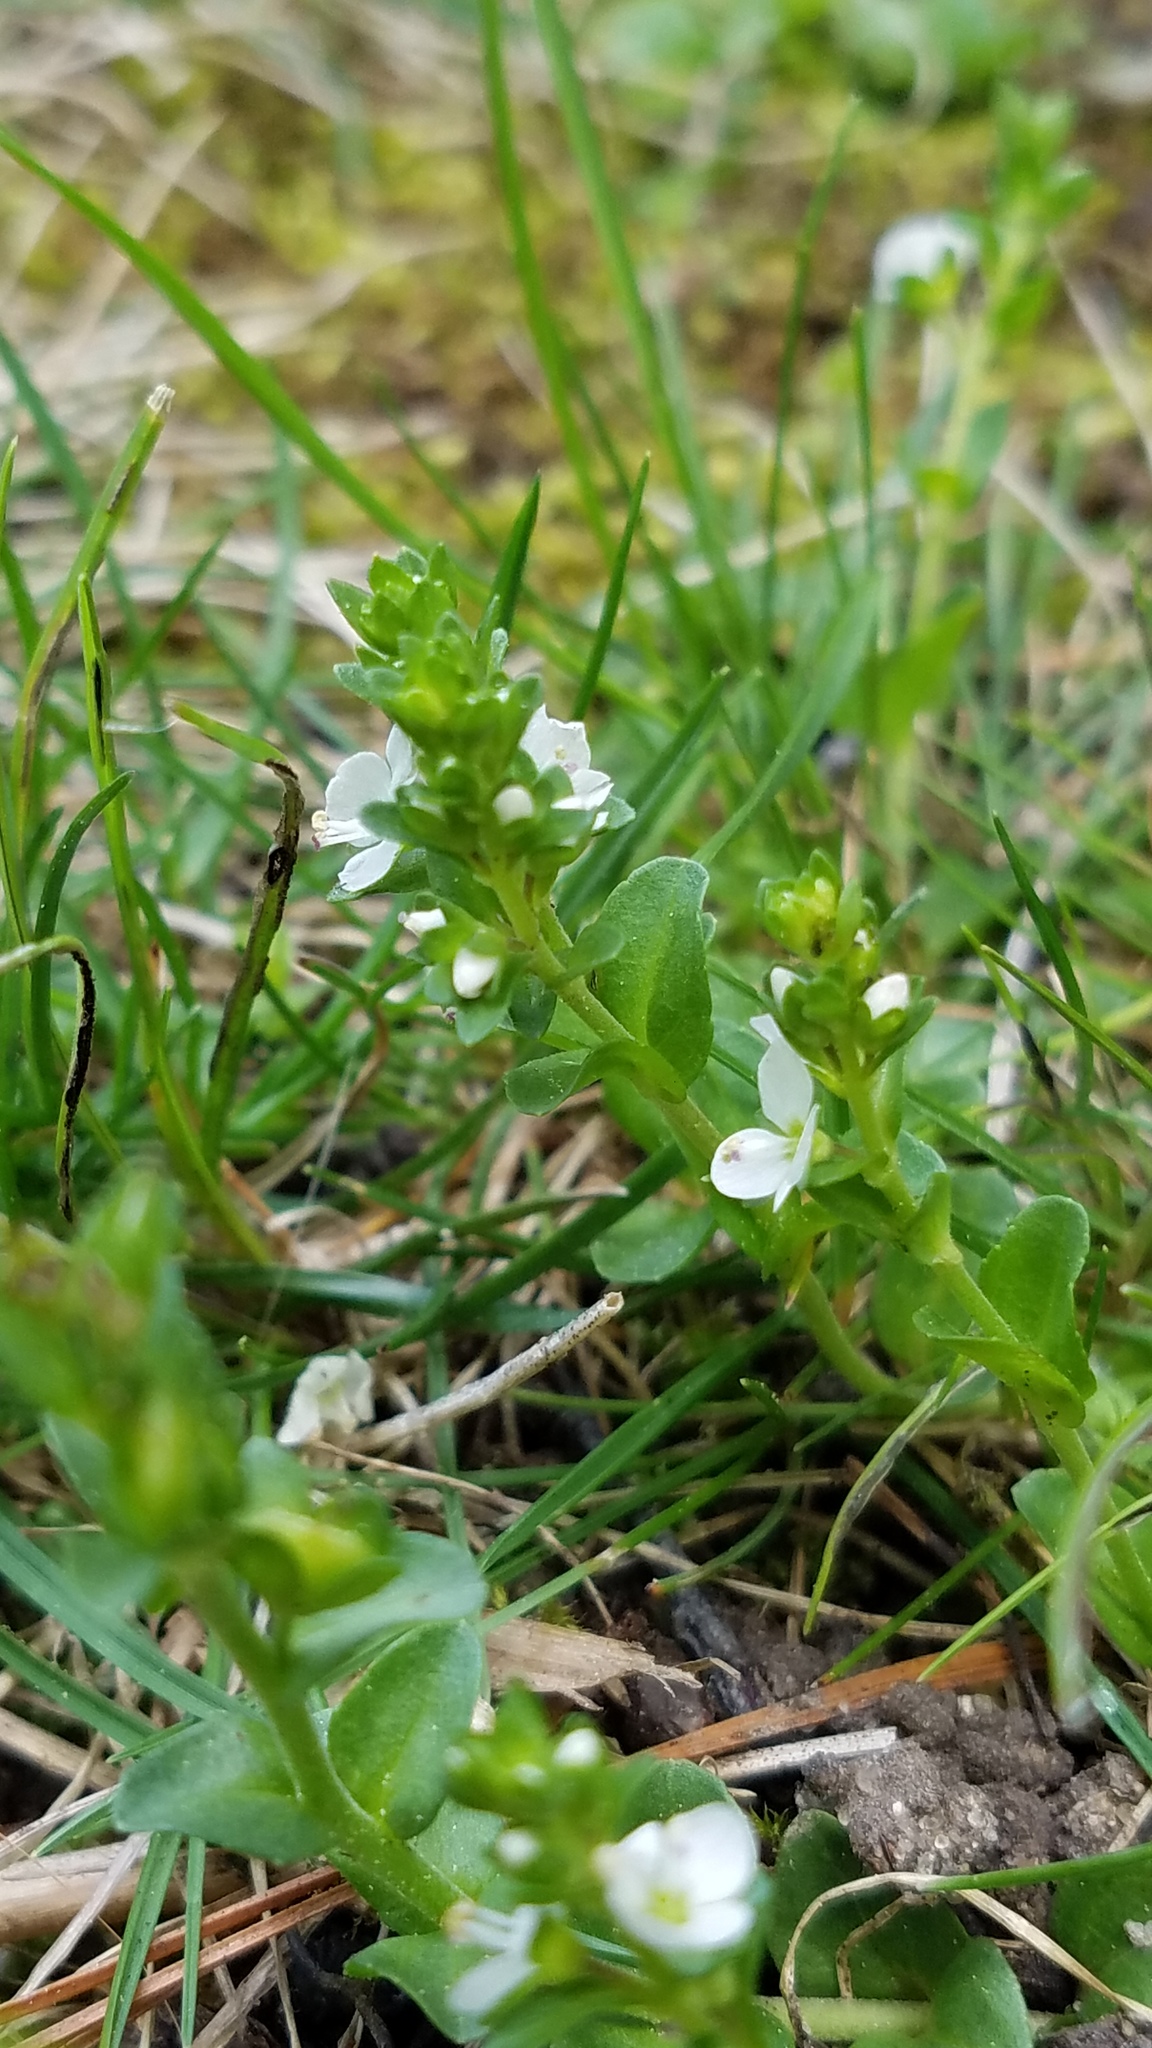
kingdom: Plantae
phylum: Tracheophyta
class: Magnoliopsida
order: Lamiales
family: Plantaginaceae
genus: Veronica
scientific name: Veronica serpyllifolia
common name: Thyme-leaved speedwell
